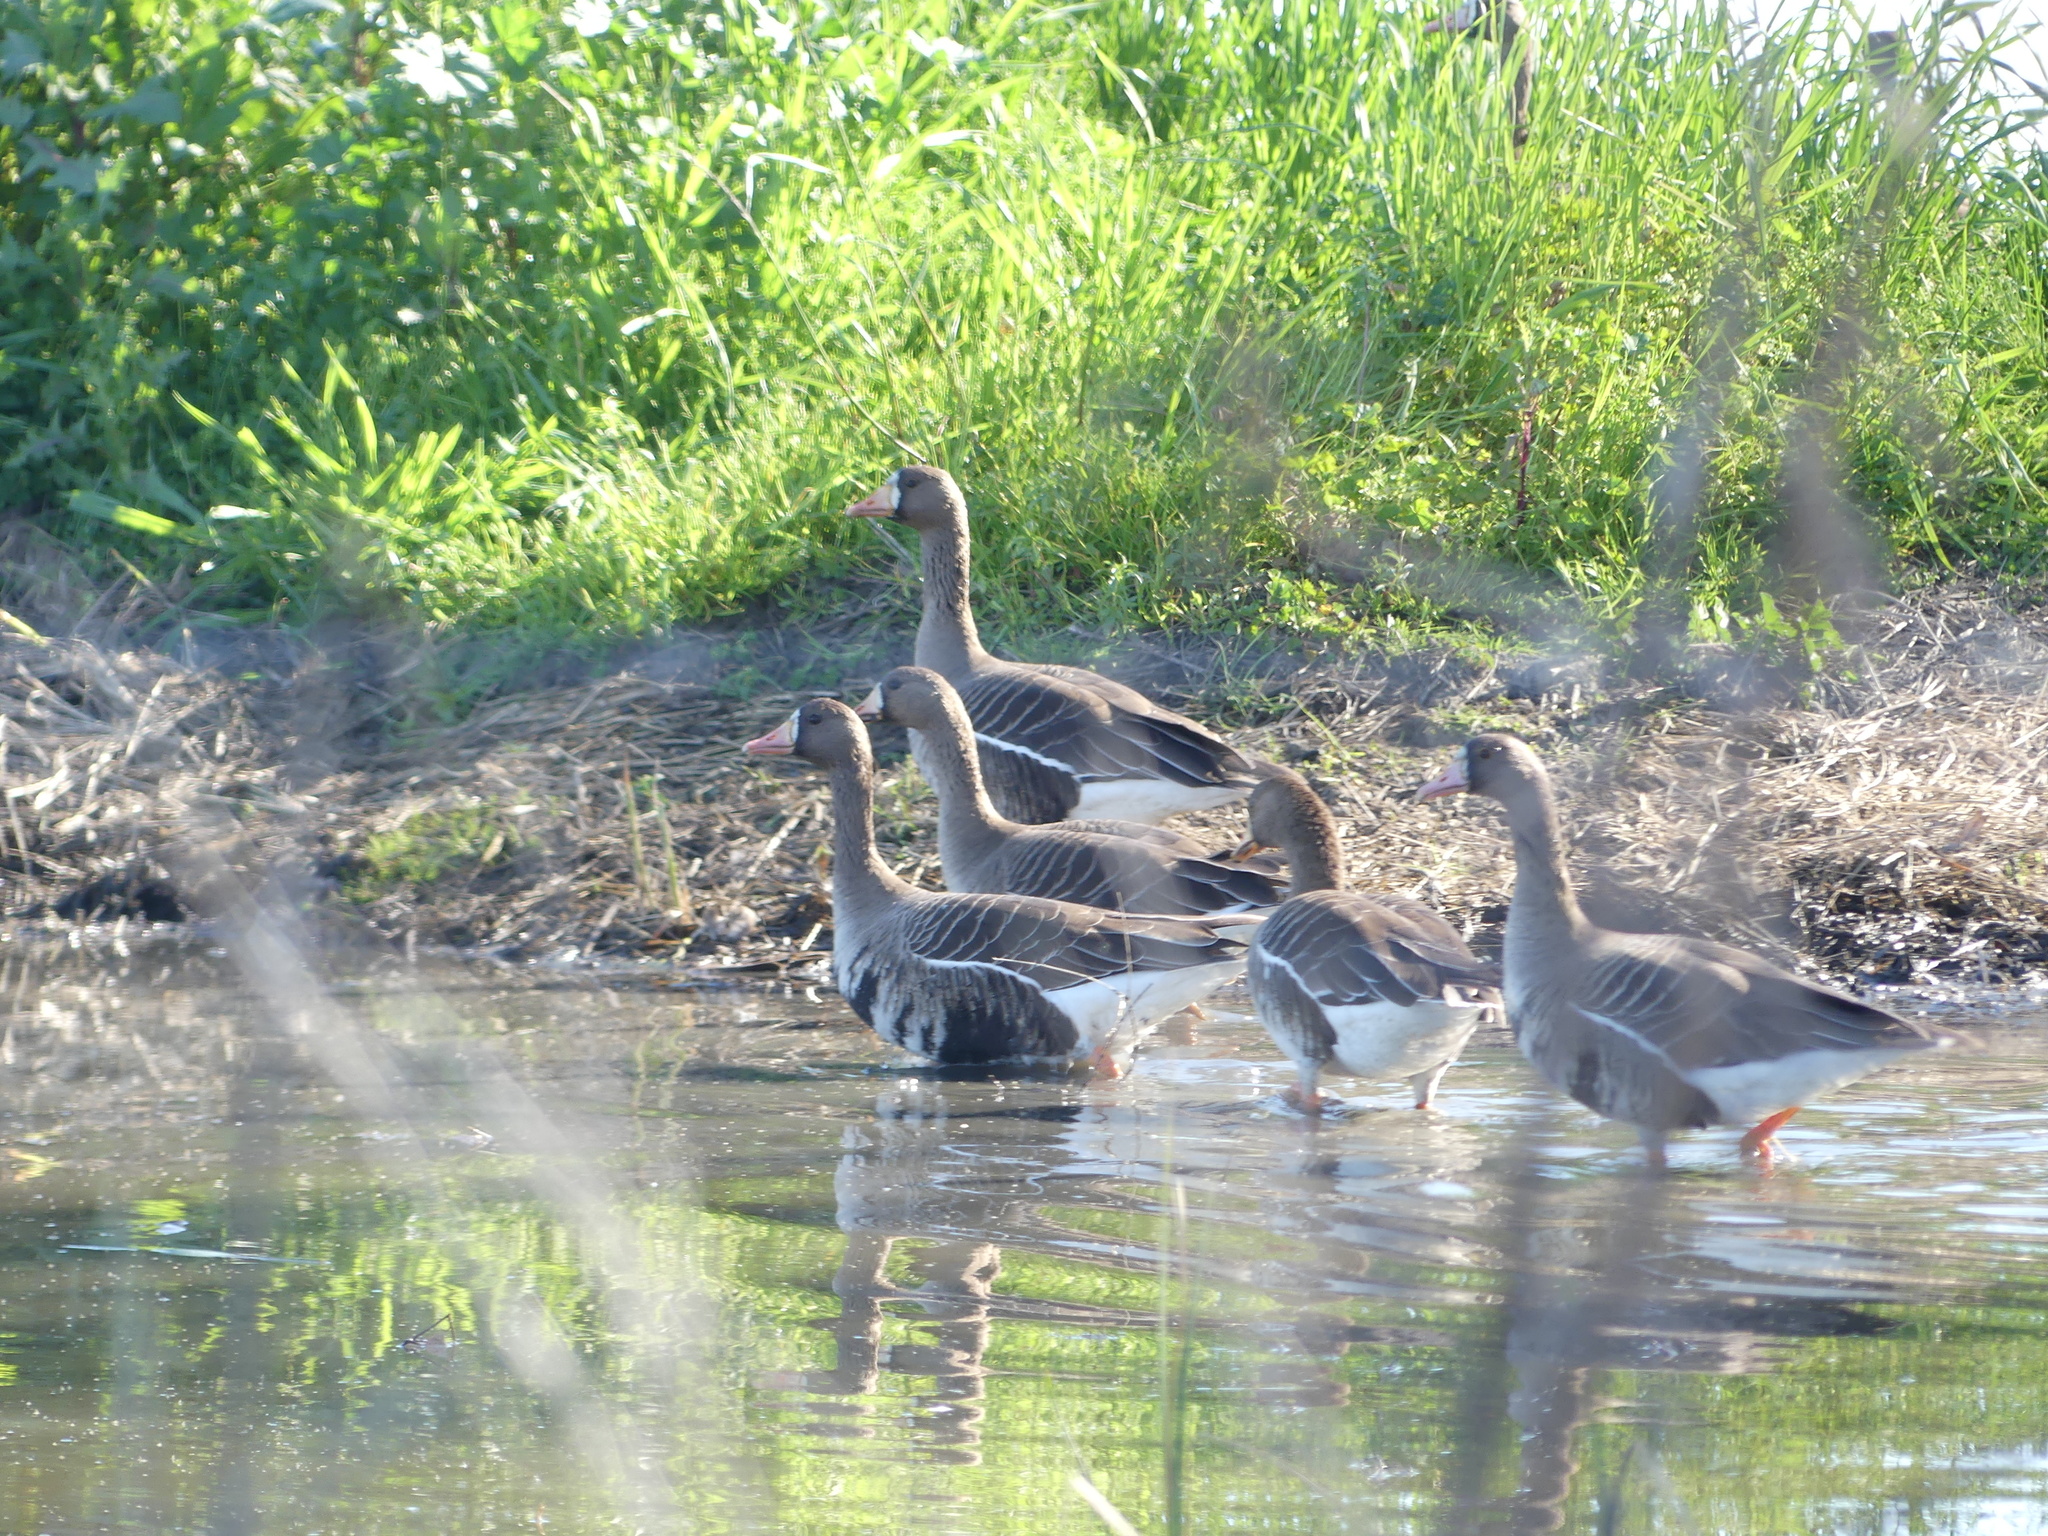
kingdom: Animalia
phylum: Chordata
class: Aves
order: Anseriformes
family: Anatidae
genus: Anser
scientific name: Anser albifrons
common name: Greater white-fronted goose
